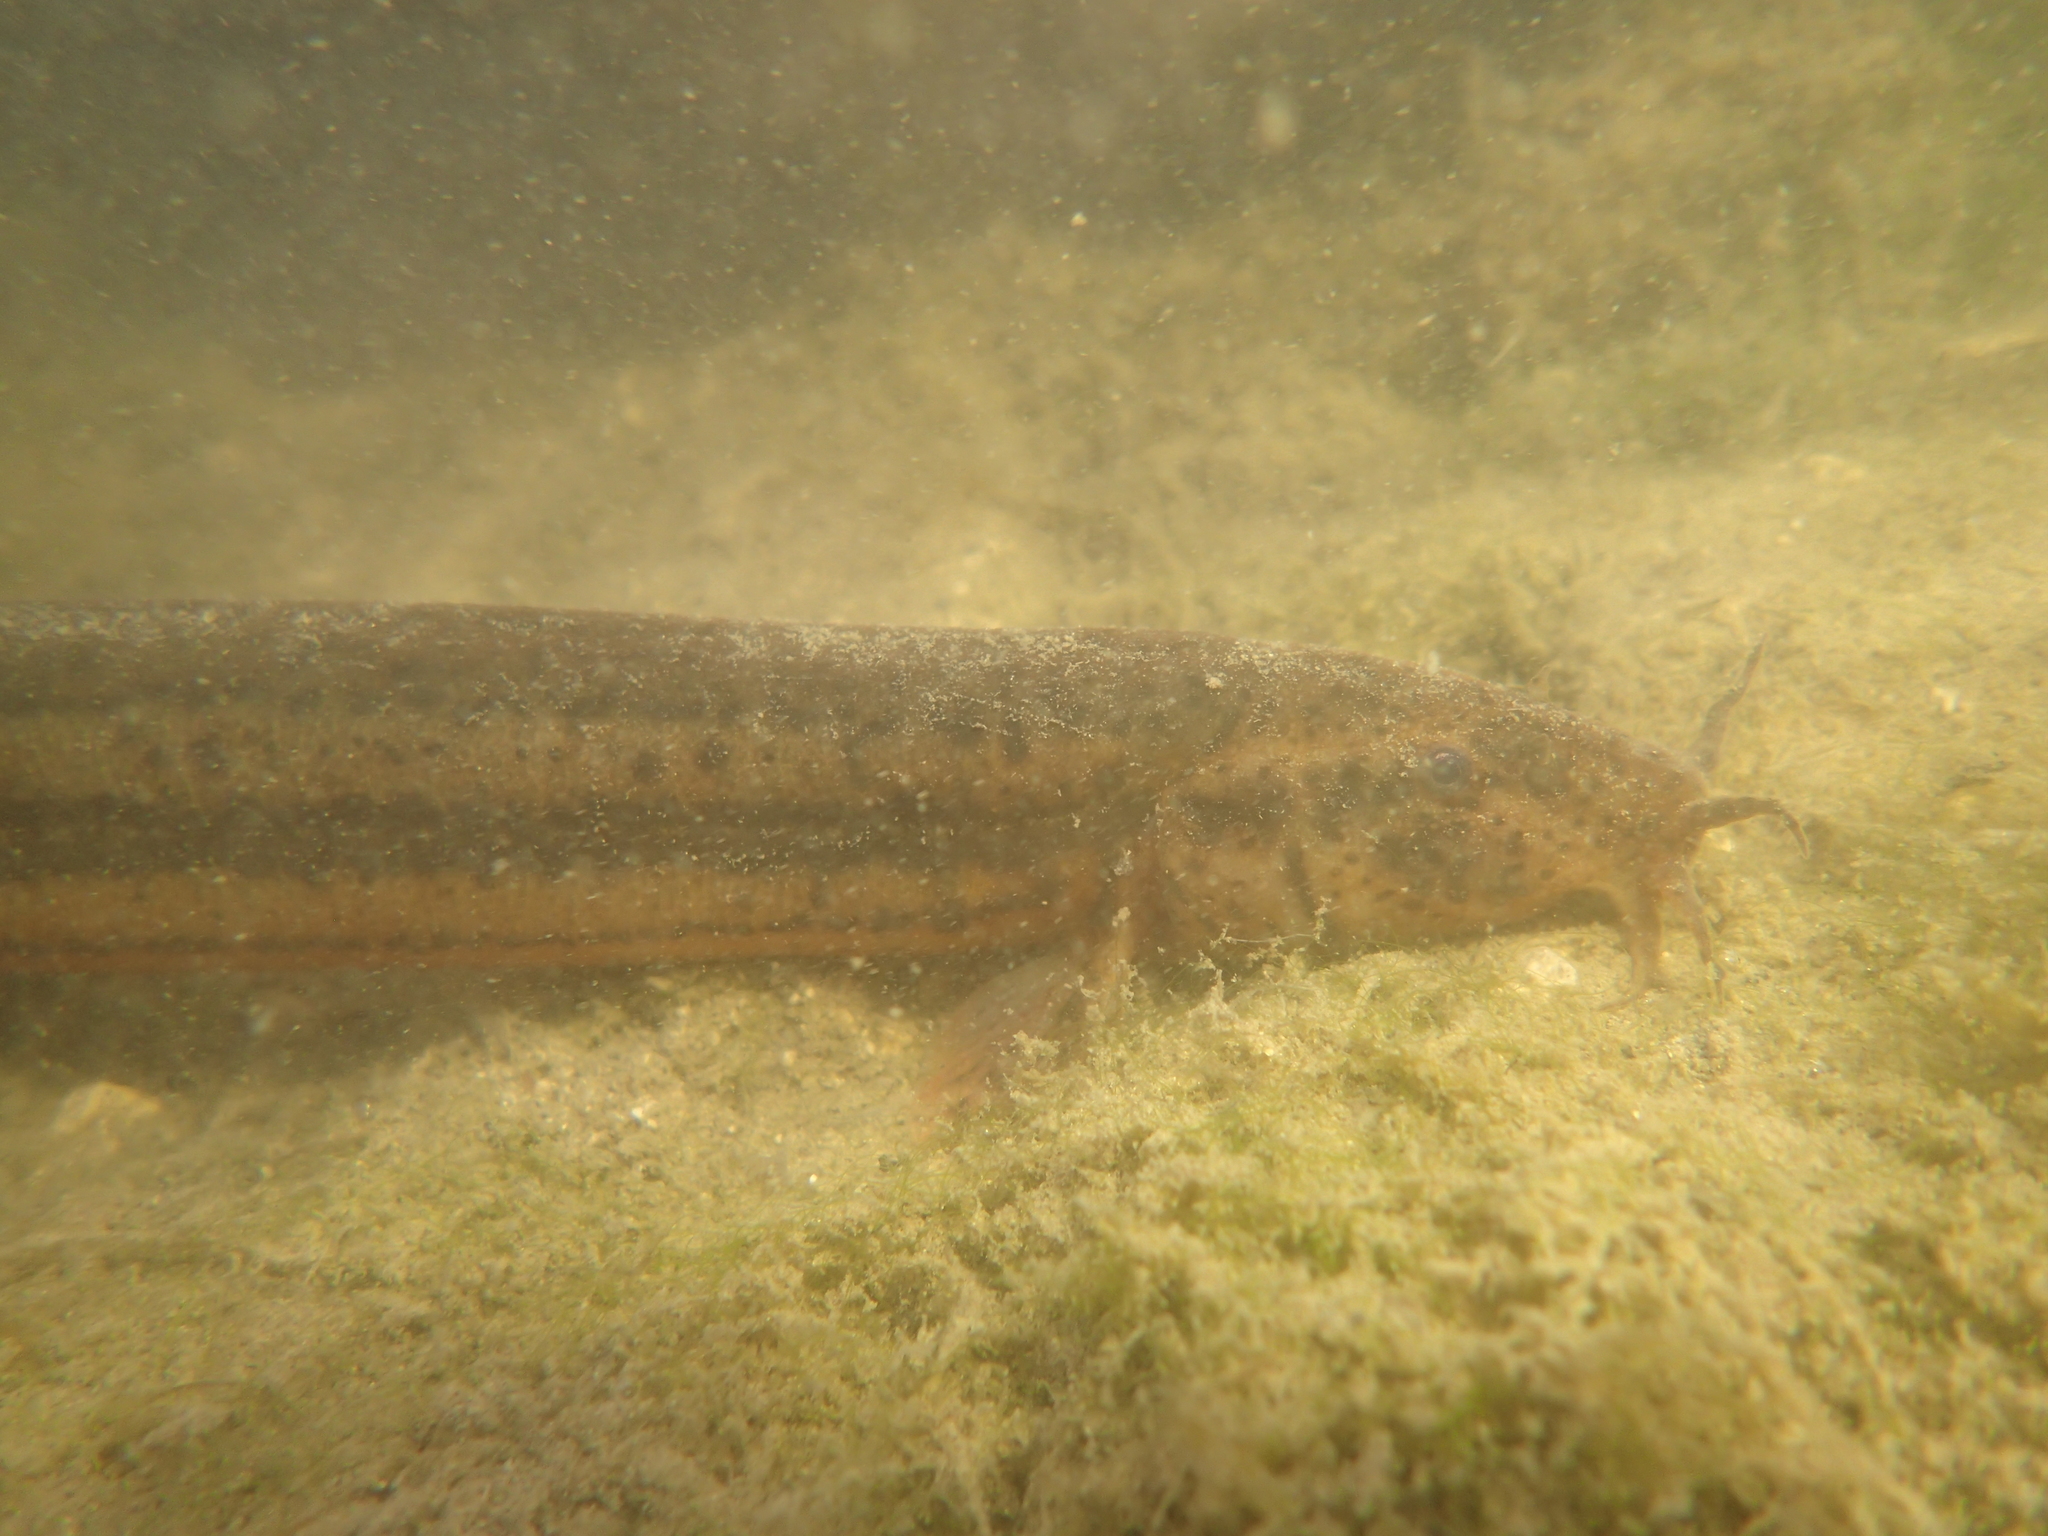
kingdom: Animalia
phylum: Chordata
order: Cypriniformes
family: Cobitidae
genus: Misgurnus
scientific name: Misgurnus fossilis
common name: Weatherfish
